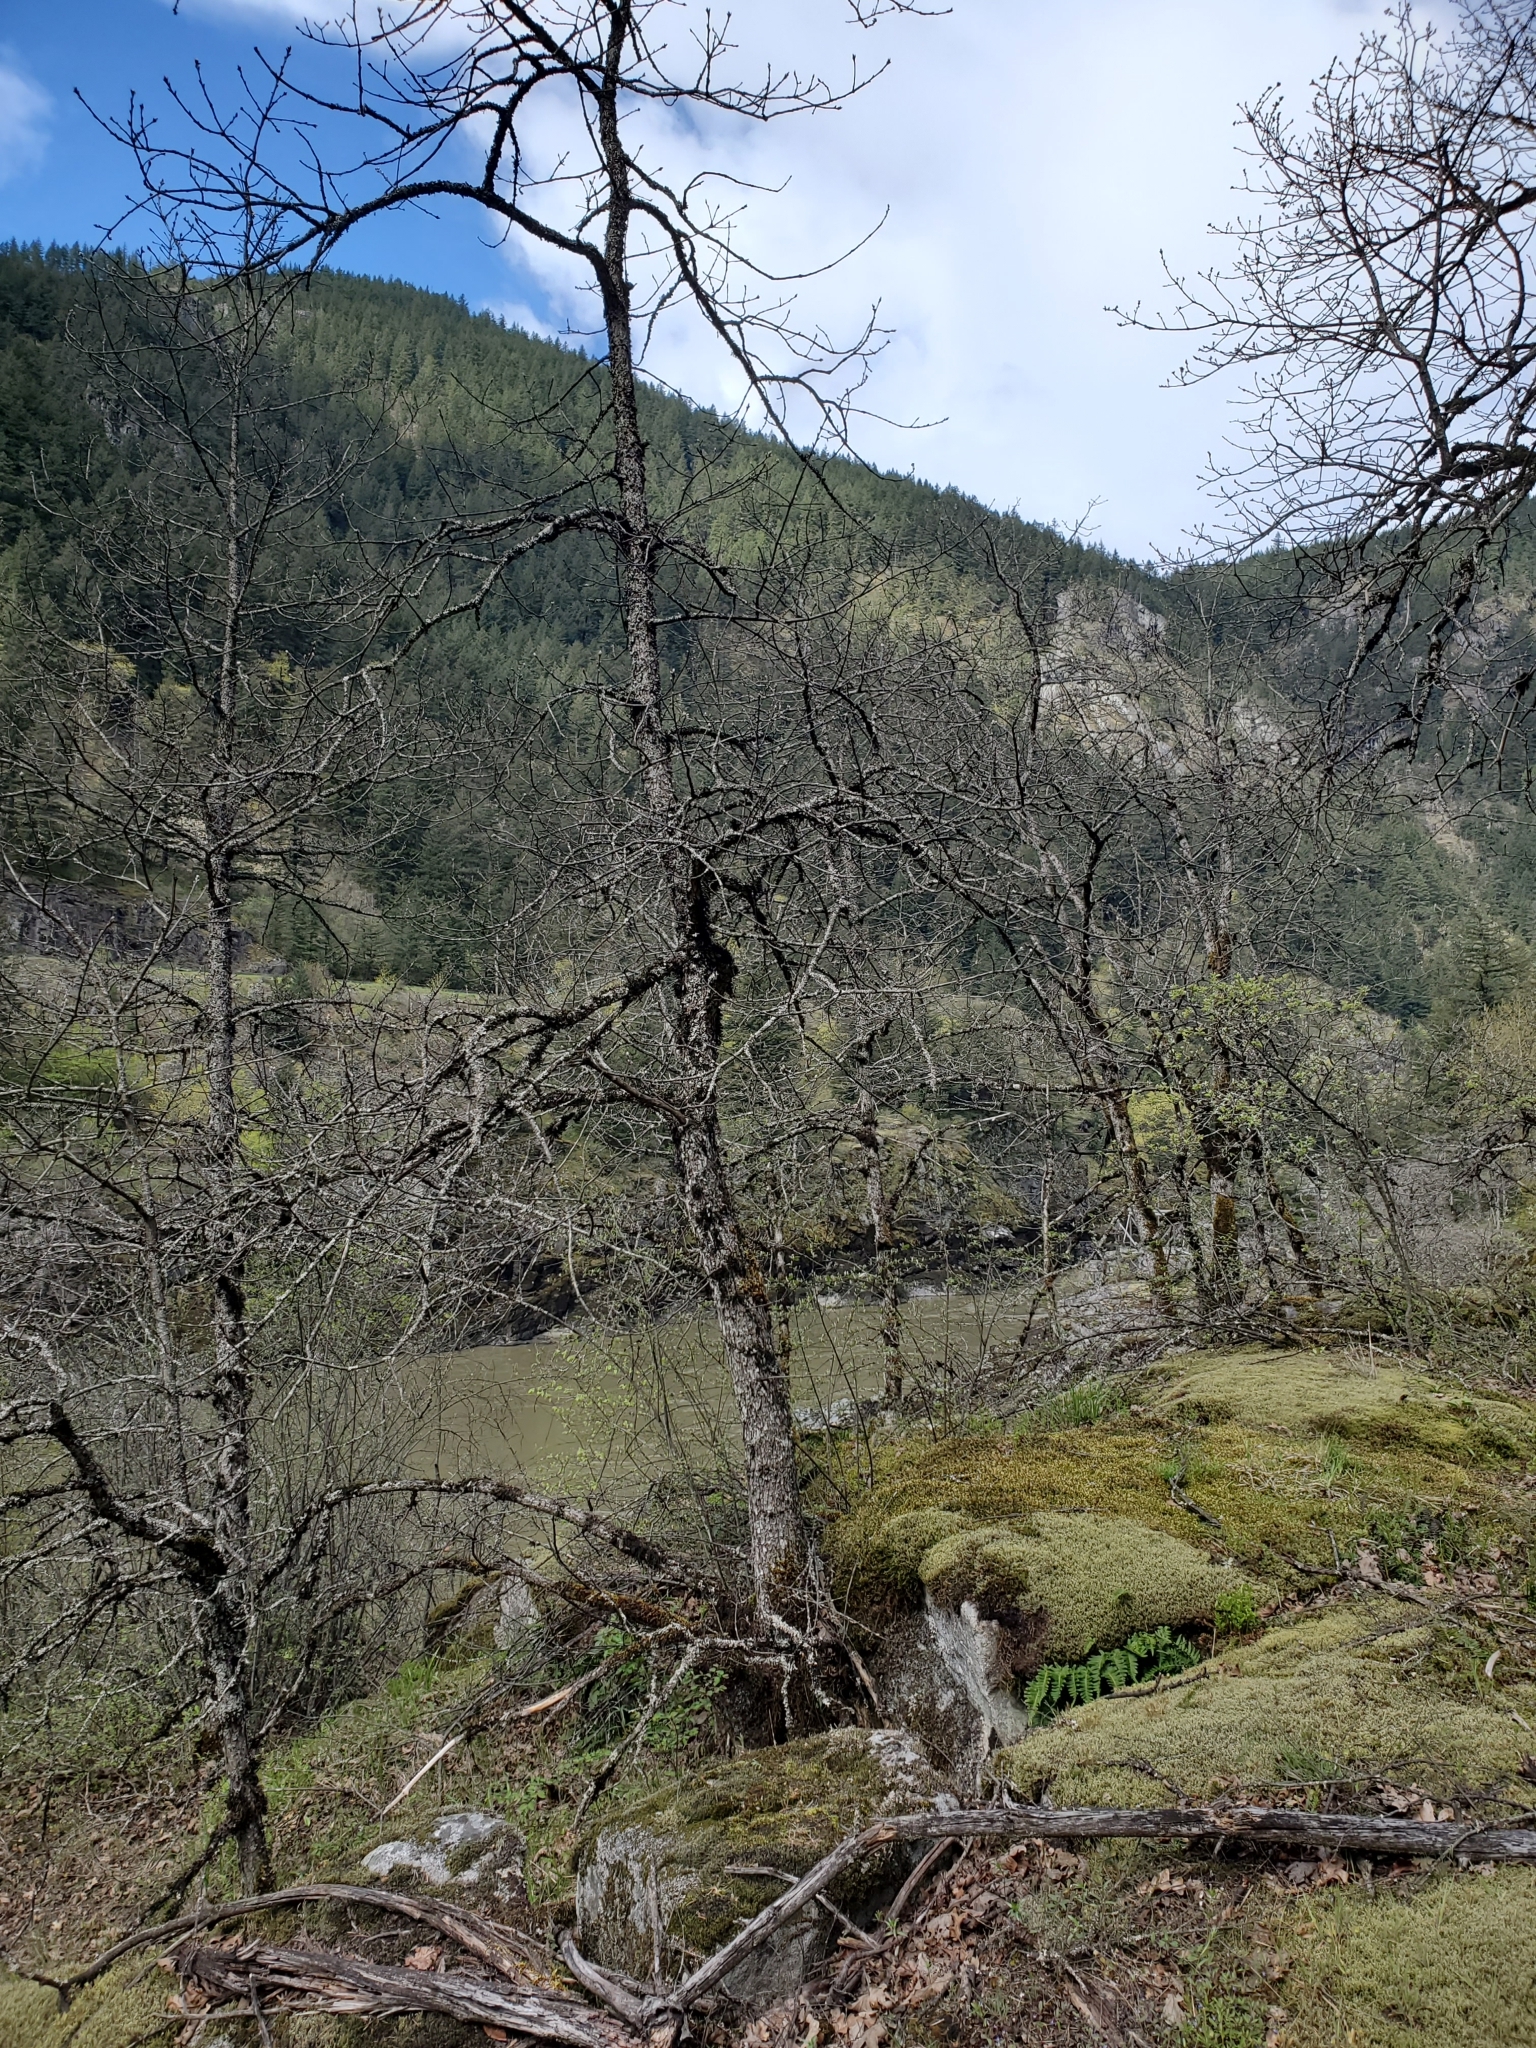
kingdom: Plantae
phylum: Tracheophyta
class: Magnoliopsida
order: Fagales
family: Fagaceae
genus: Quercus
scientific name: Quercus garryana
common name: Garry oak
